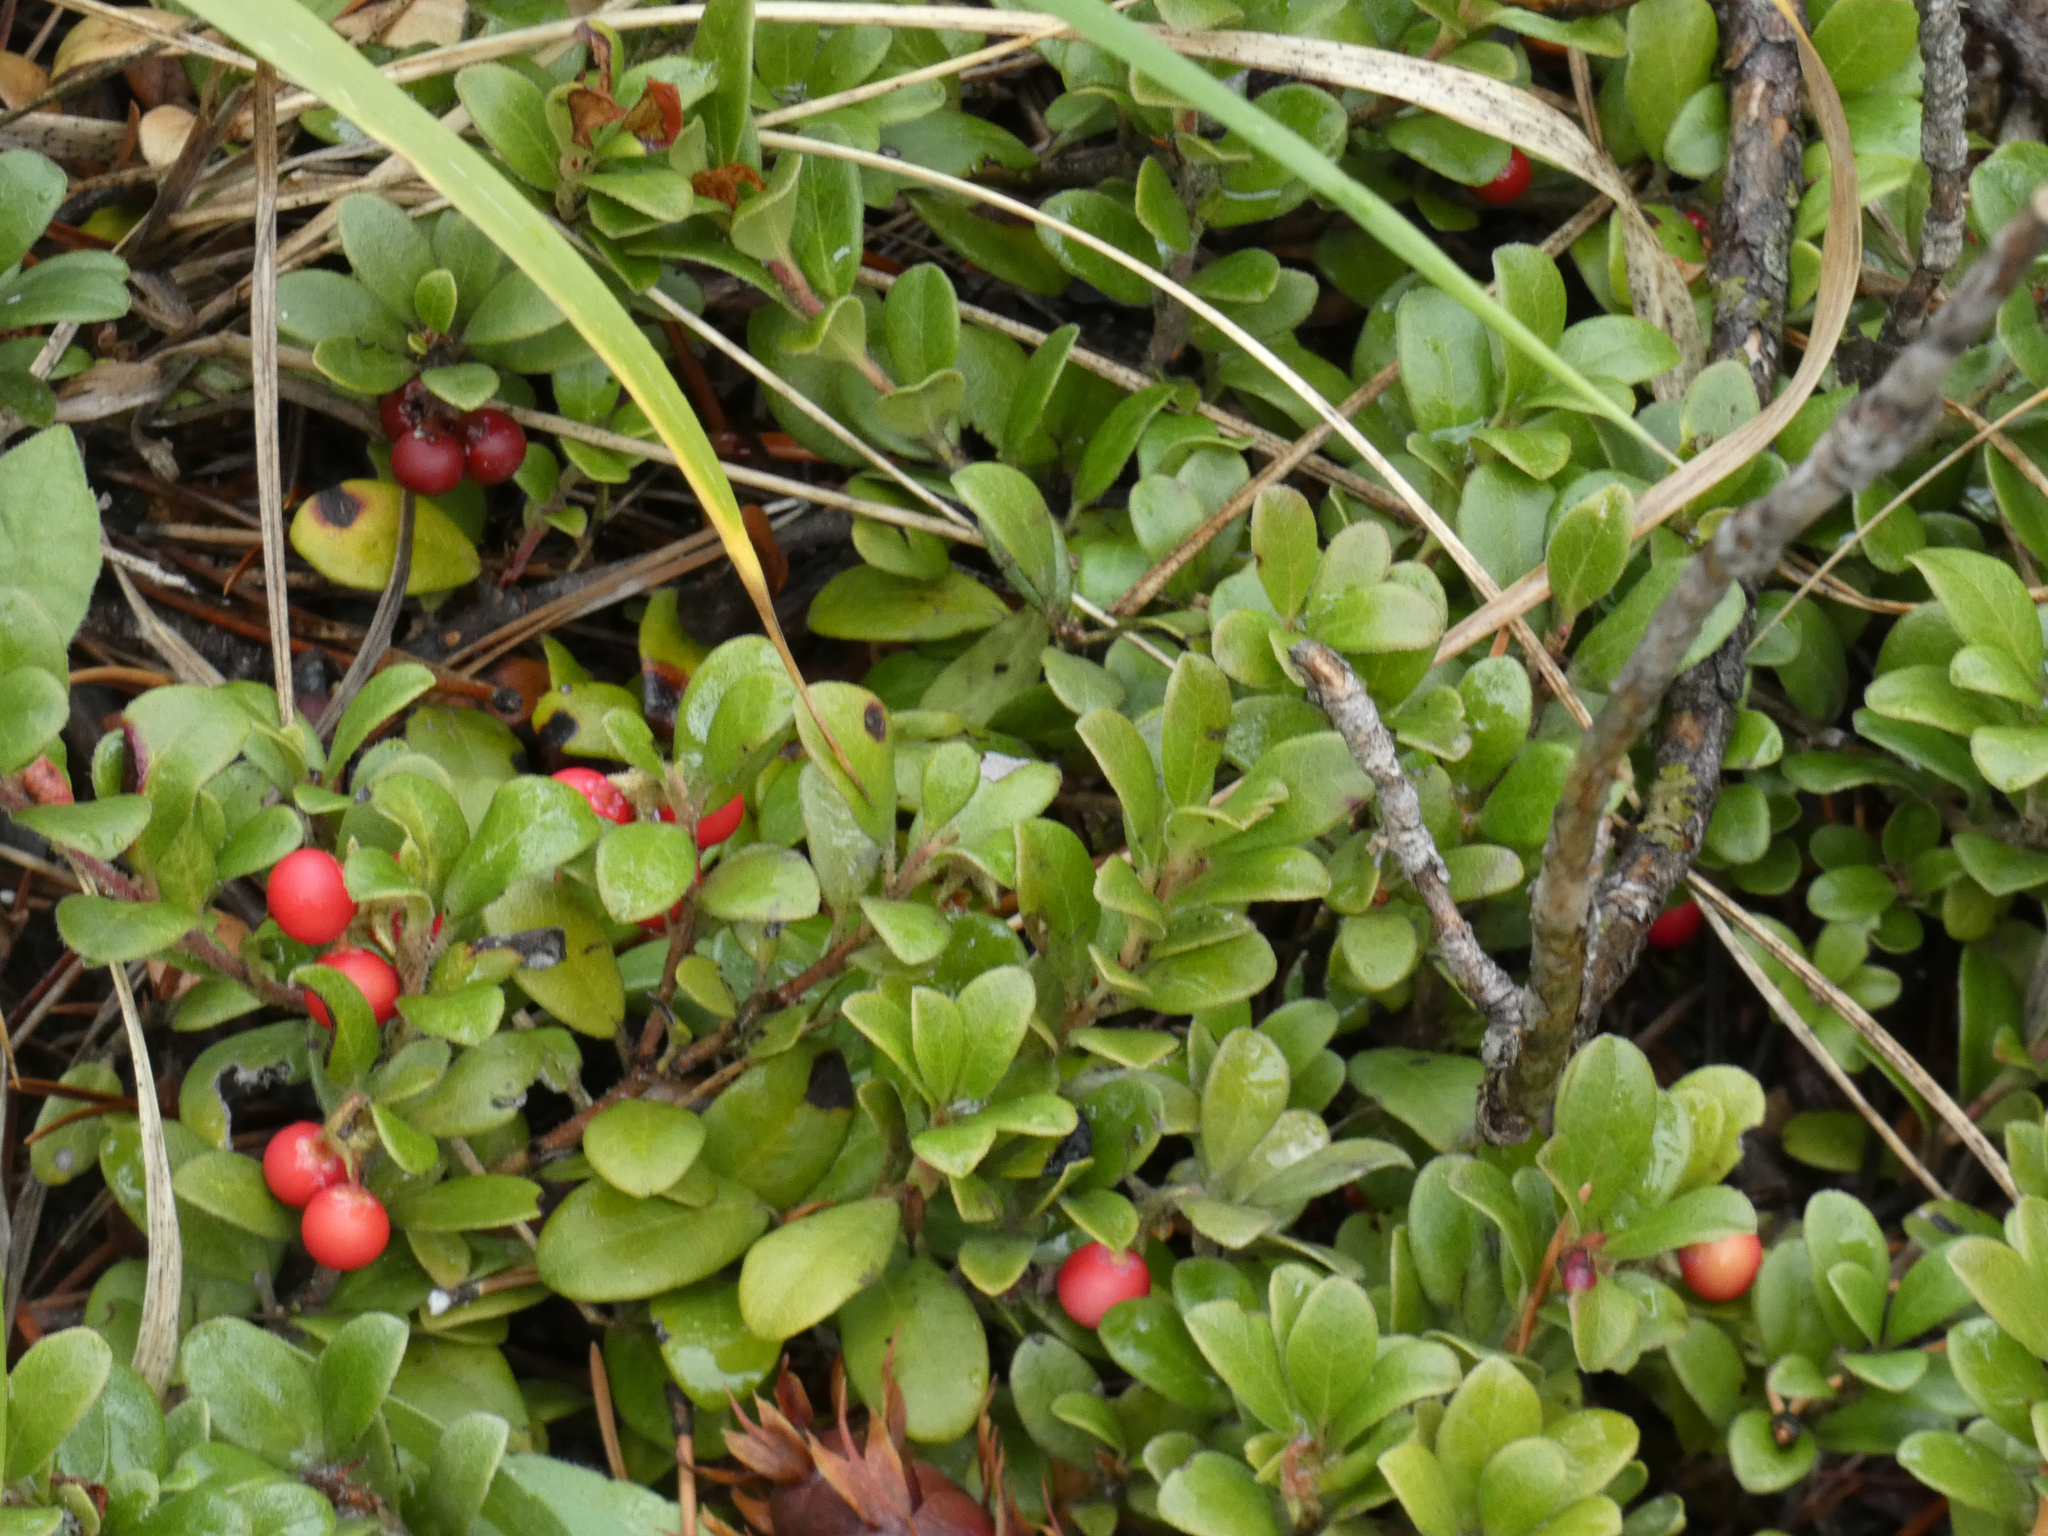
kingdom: Plantae
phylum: Tracheophyta
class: Magnoliopsida
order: Ericales
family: Ericaceae
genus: Arctostaphylos
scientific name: Arctostaphylos uva-ursi
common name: Bearberry
